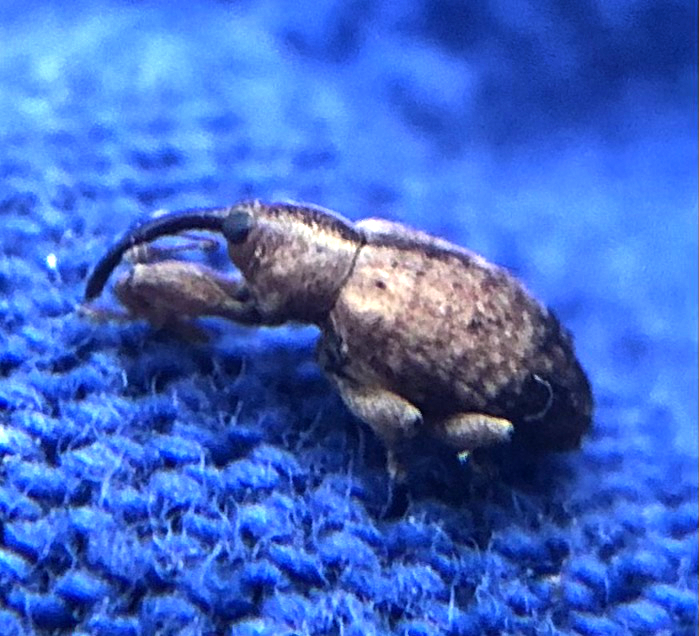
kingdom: Animalia
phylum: Arthropoda
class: Insecta
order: Coleoptera
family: Curculionidae
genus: Ochyromera
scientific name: Ochyromera ligustri
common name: Weevil
